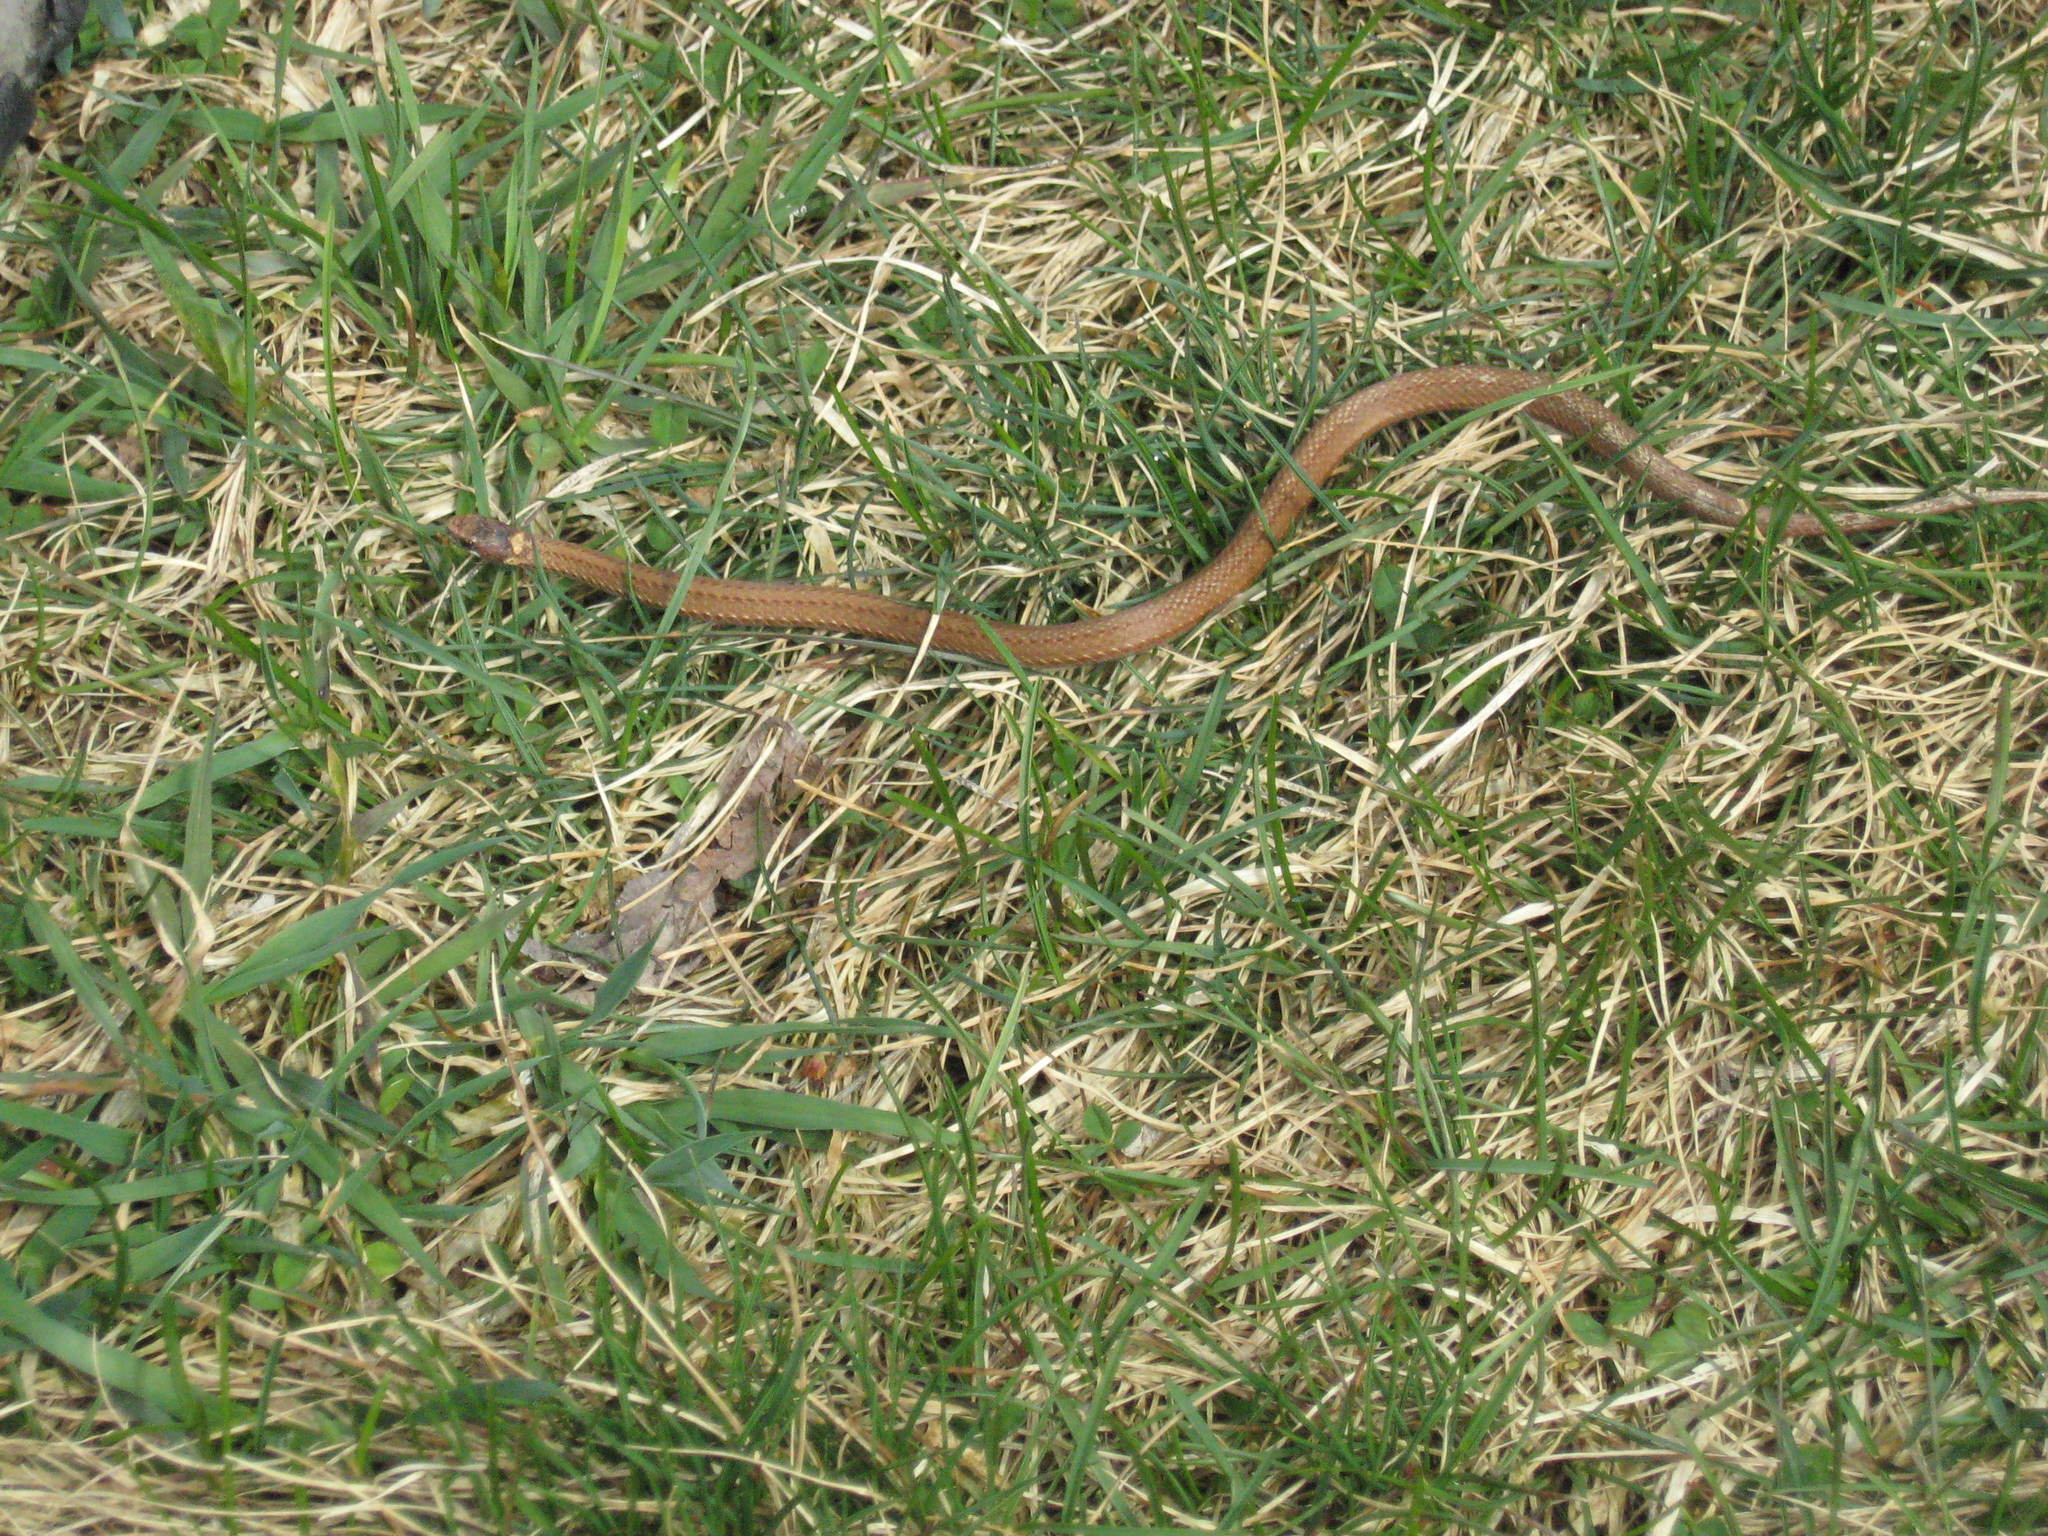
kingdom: Animalia
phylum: Chordata
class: Squamata
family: Colubridae
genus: Storeria
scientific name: Storeria occipitomaculata
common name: Redbelly snake
